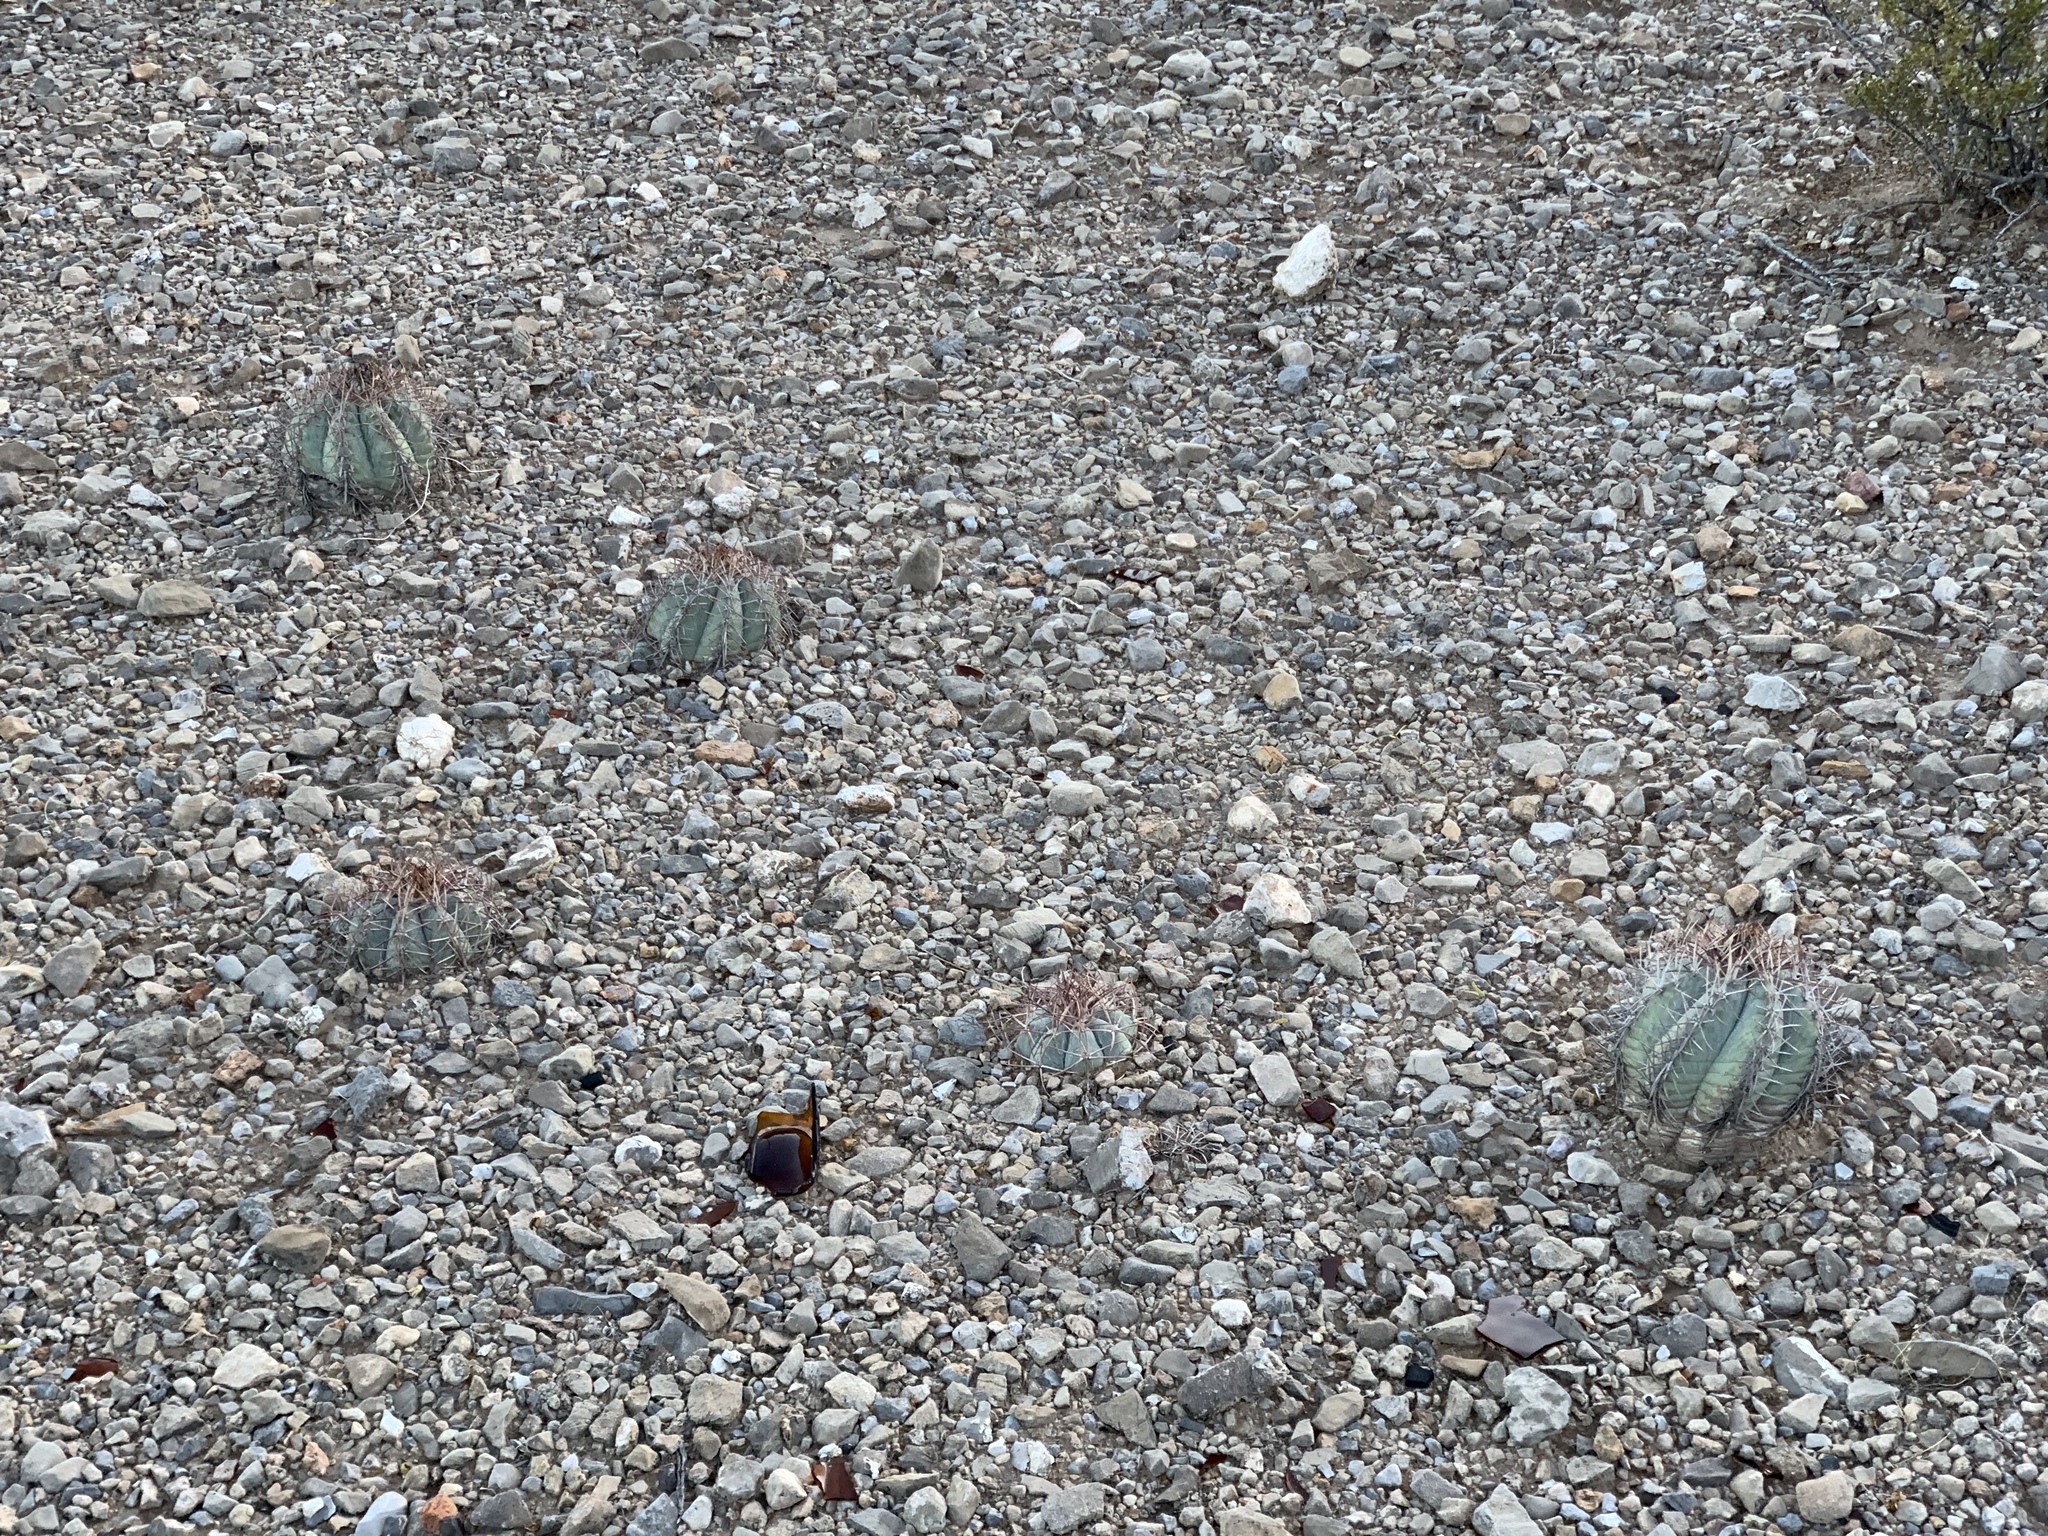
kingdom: Plantae
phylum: Tracheophyta
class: Magnoliopsida
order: Caryophyllales
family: Cactaceae
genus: Echinocactus
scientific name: Echinocactus horizonthalonius
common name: Devilshead
